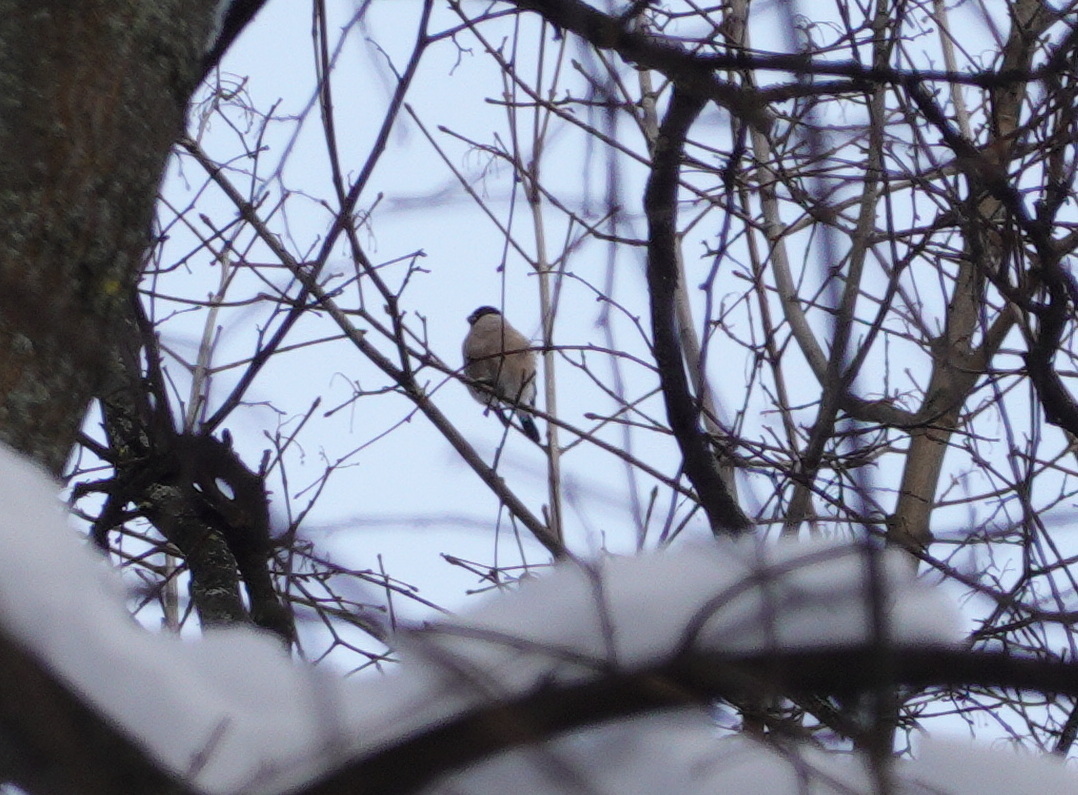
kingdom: Animalia
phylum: Chordata
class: Aves
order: Passeriformes
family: Fringillidae
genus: Pyrrhula
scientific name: Pyrrhula pyrrhula
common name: Eurasian bullfinch
